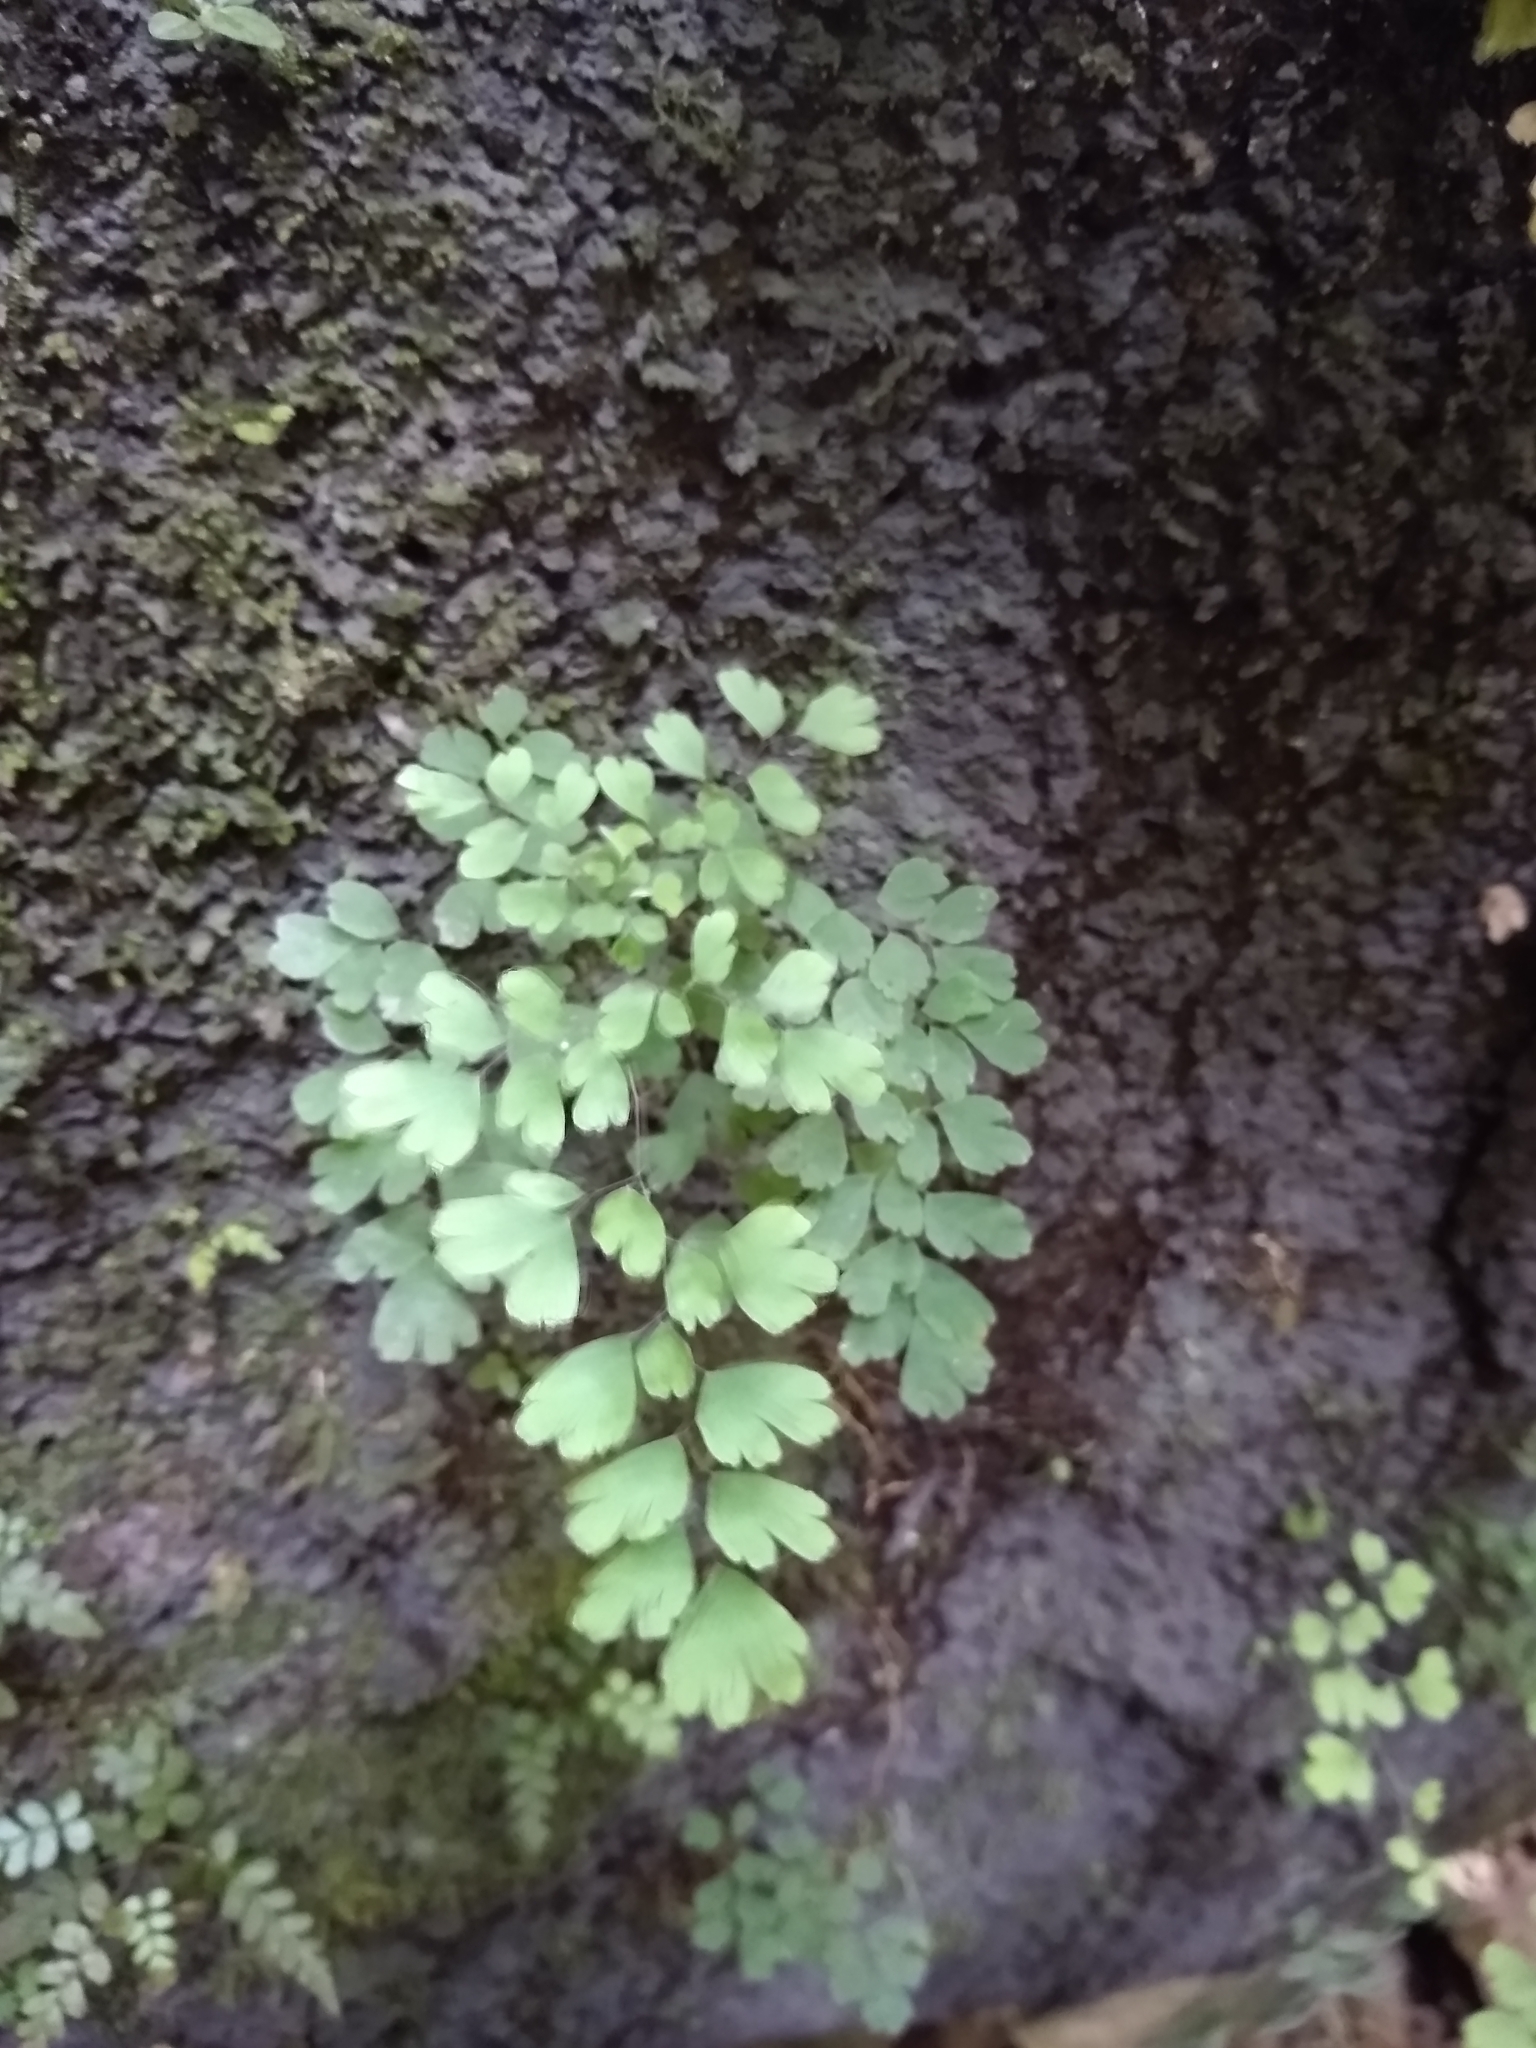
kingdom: Plantae
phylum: Tracheophyta
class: Polypodiopsida
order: Polypodiales
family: Pteridaceae
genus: Adiantum
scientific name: Adiantum raddianum
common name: Delta maidenhair fern
